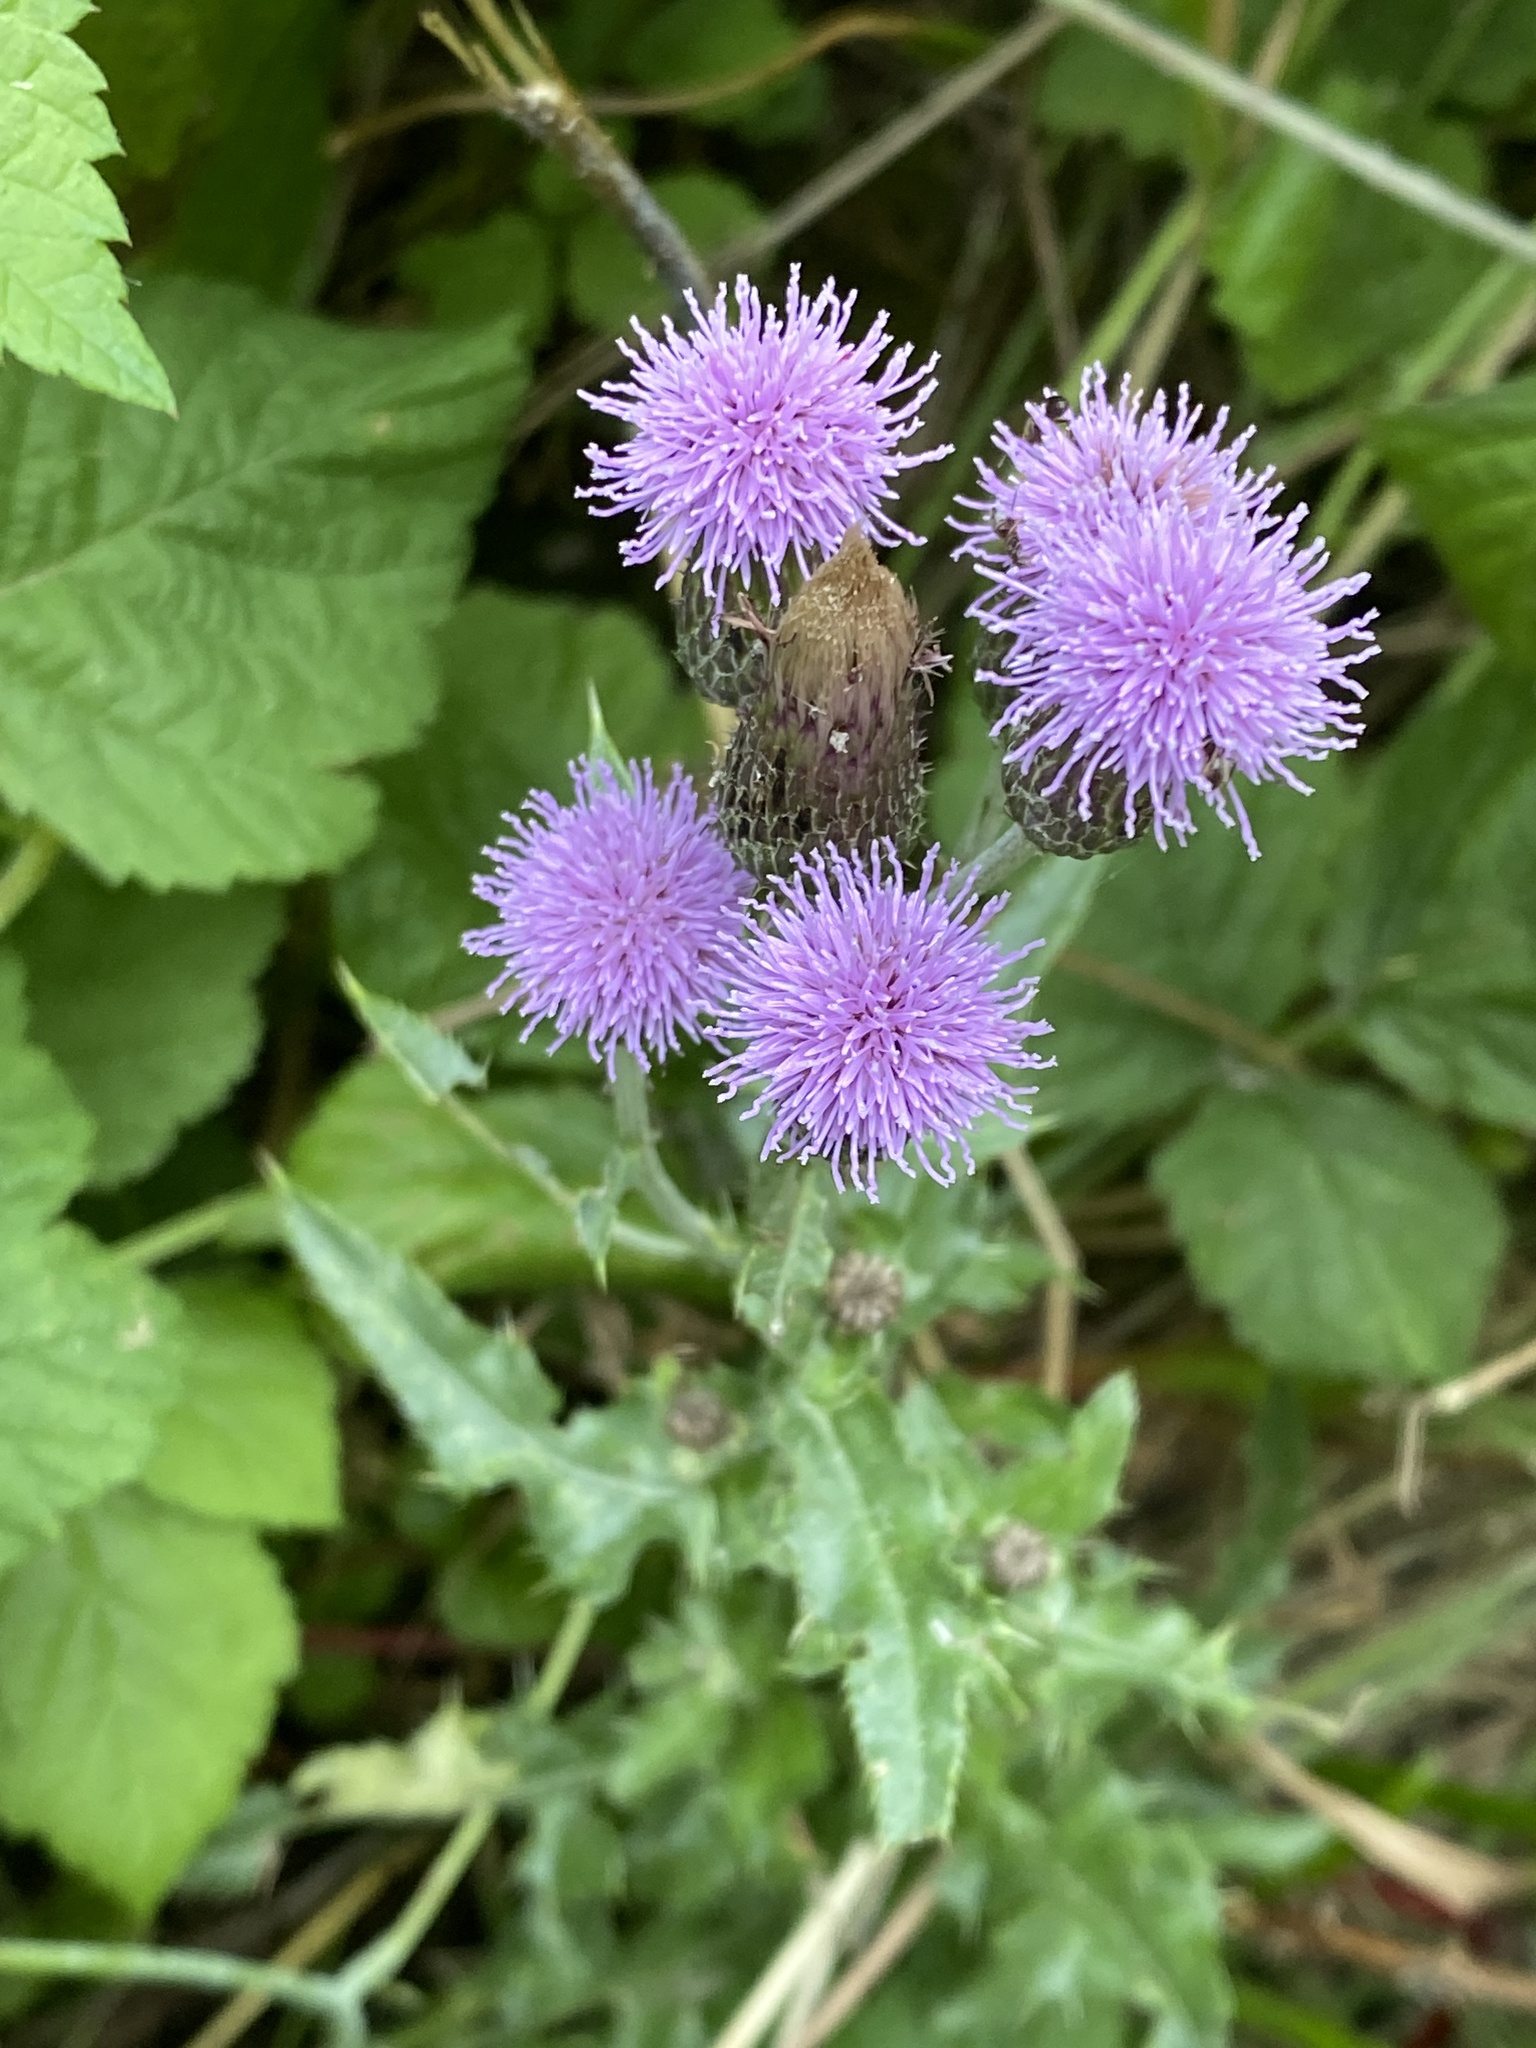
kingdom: Plantae
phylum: Tracheophyta
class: Magnoliopsida
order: Asterales
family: Asteraceae
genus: Cirsium
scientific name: Cirsium arvense
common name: Creeping thistle
